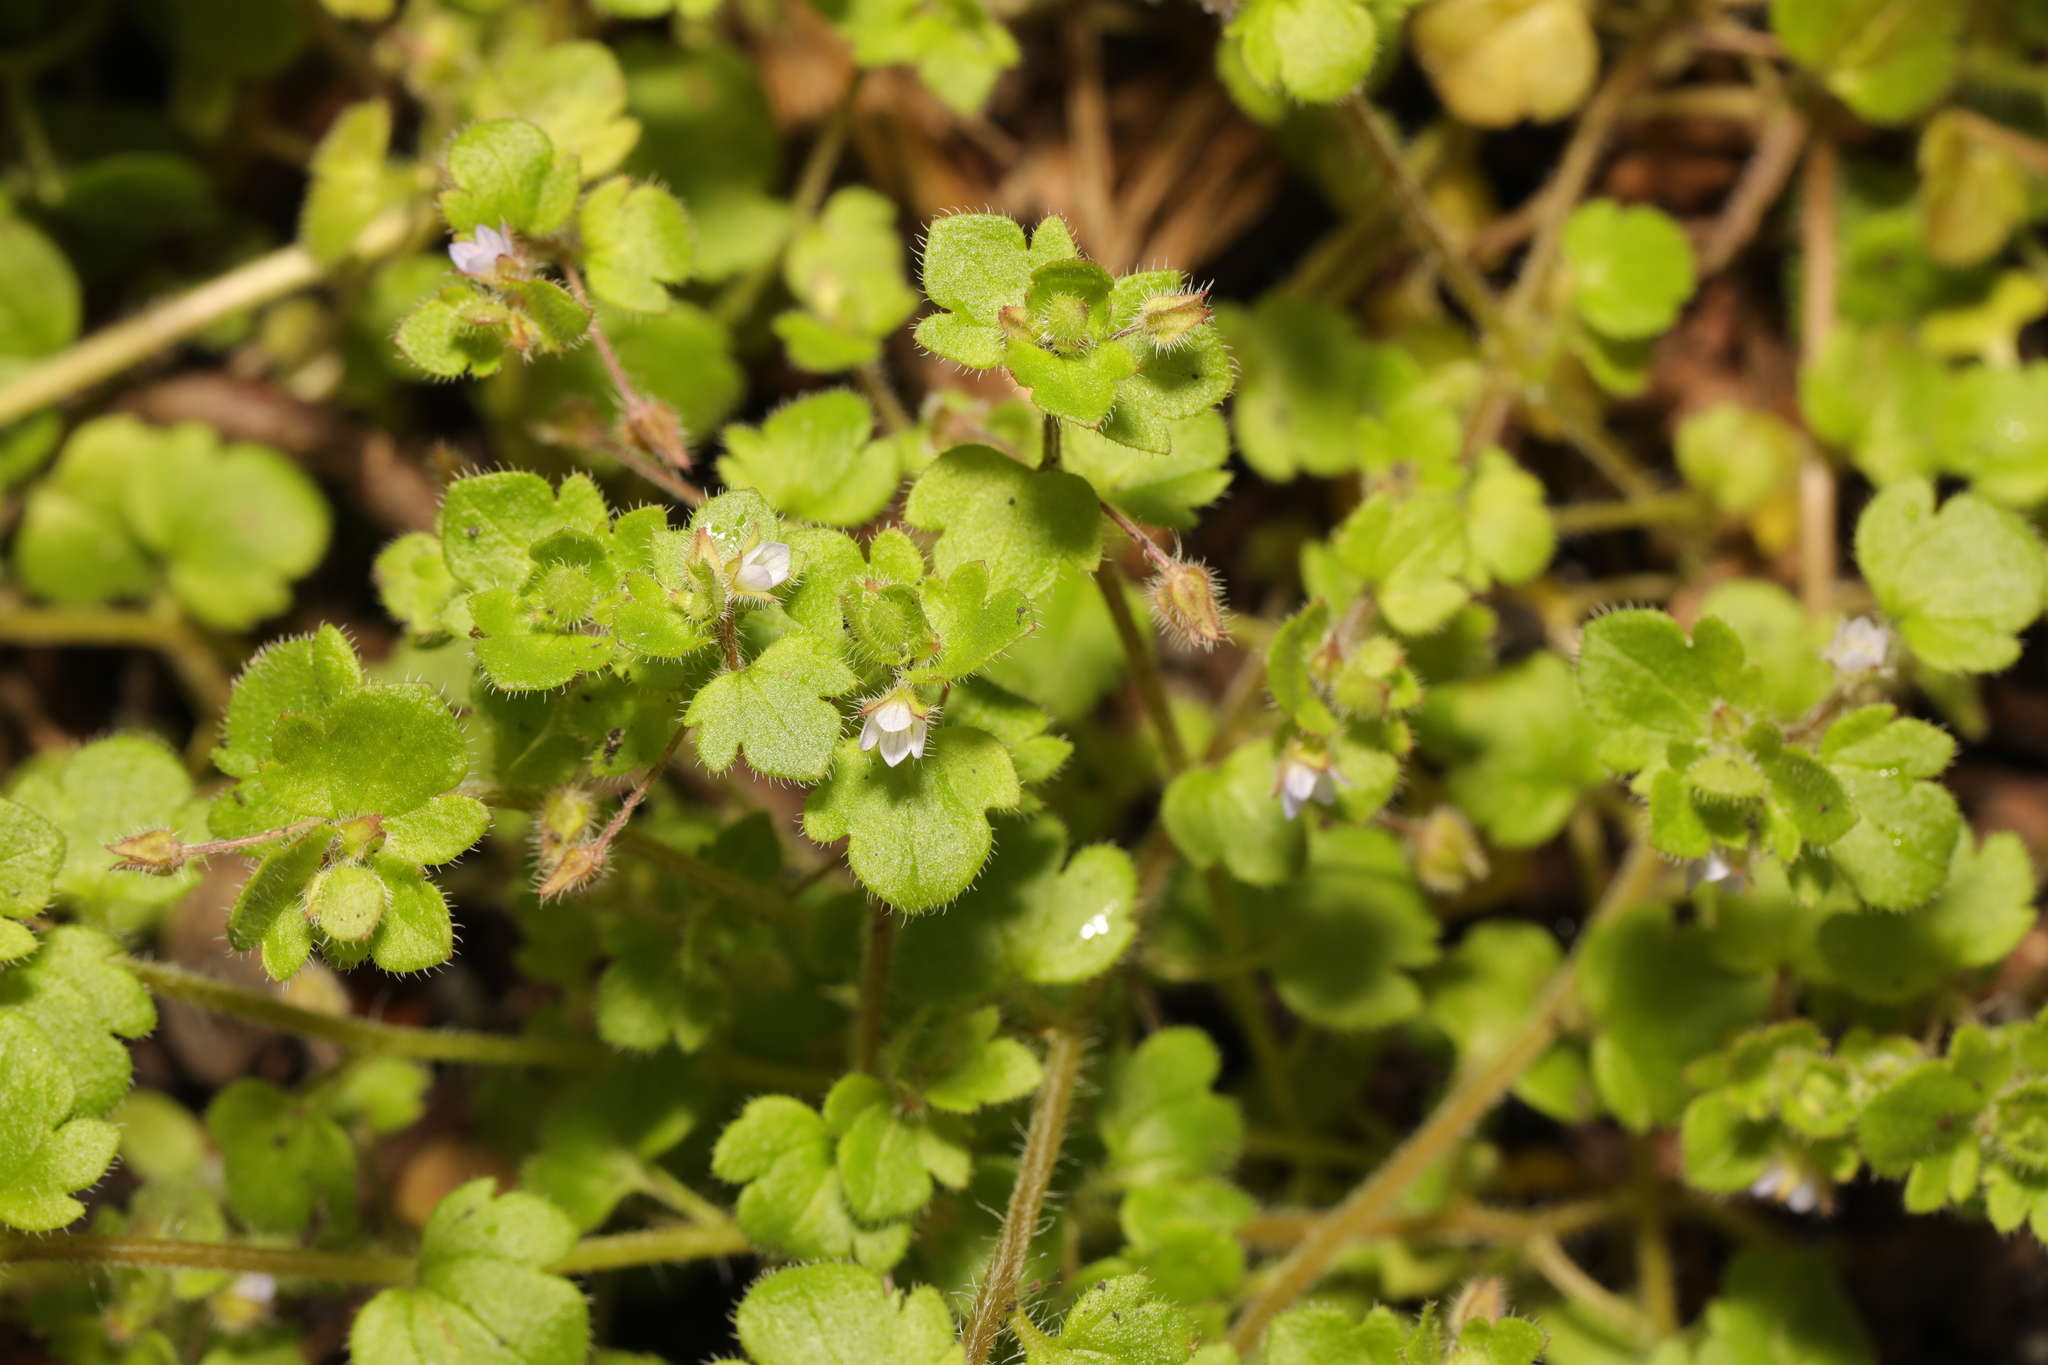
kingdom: Plantae
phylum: Tracheophyta
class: Magnoliopsida
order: Lamiales
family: Plantaginaceae
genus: Veronica
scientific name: Veronica sublobata
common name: False ivy-leaved speedwell
